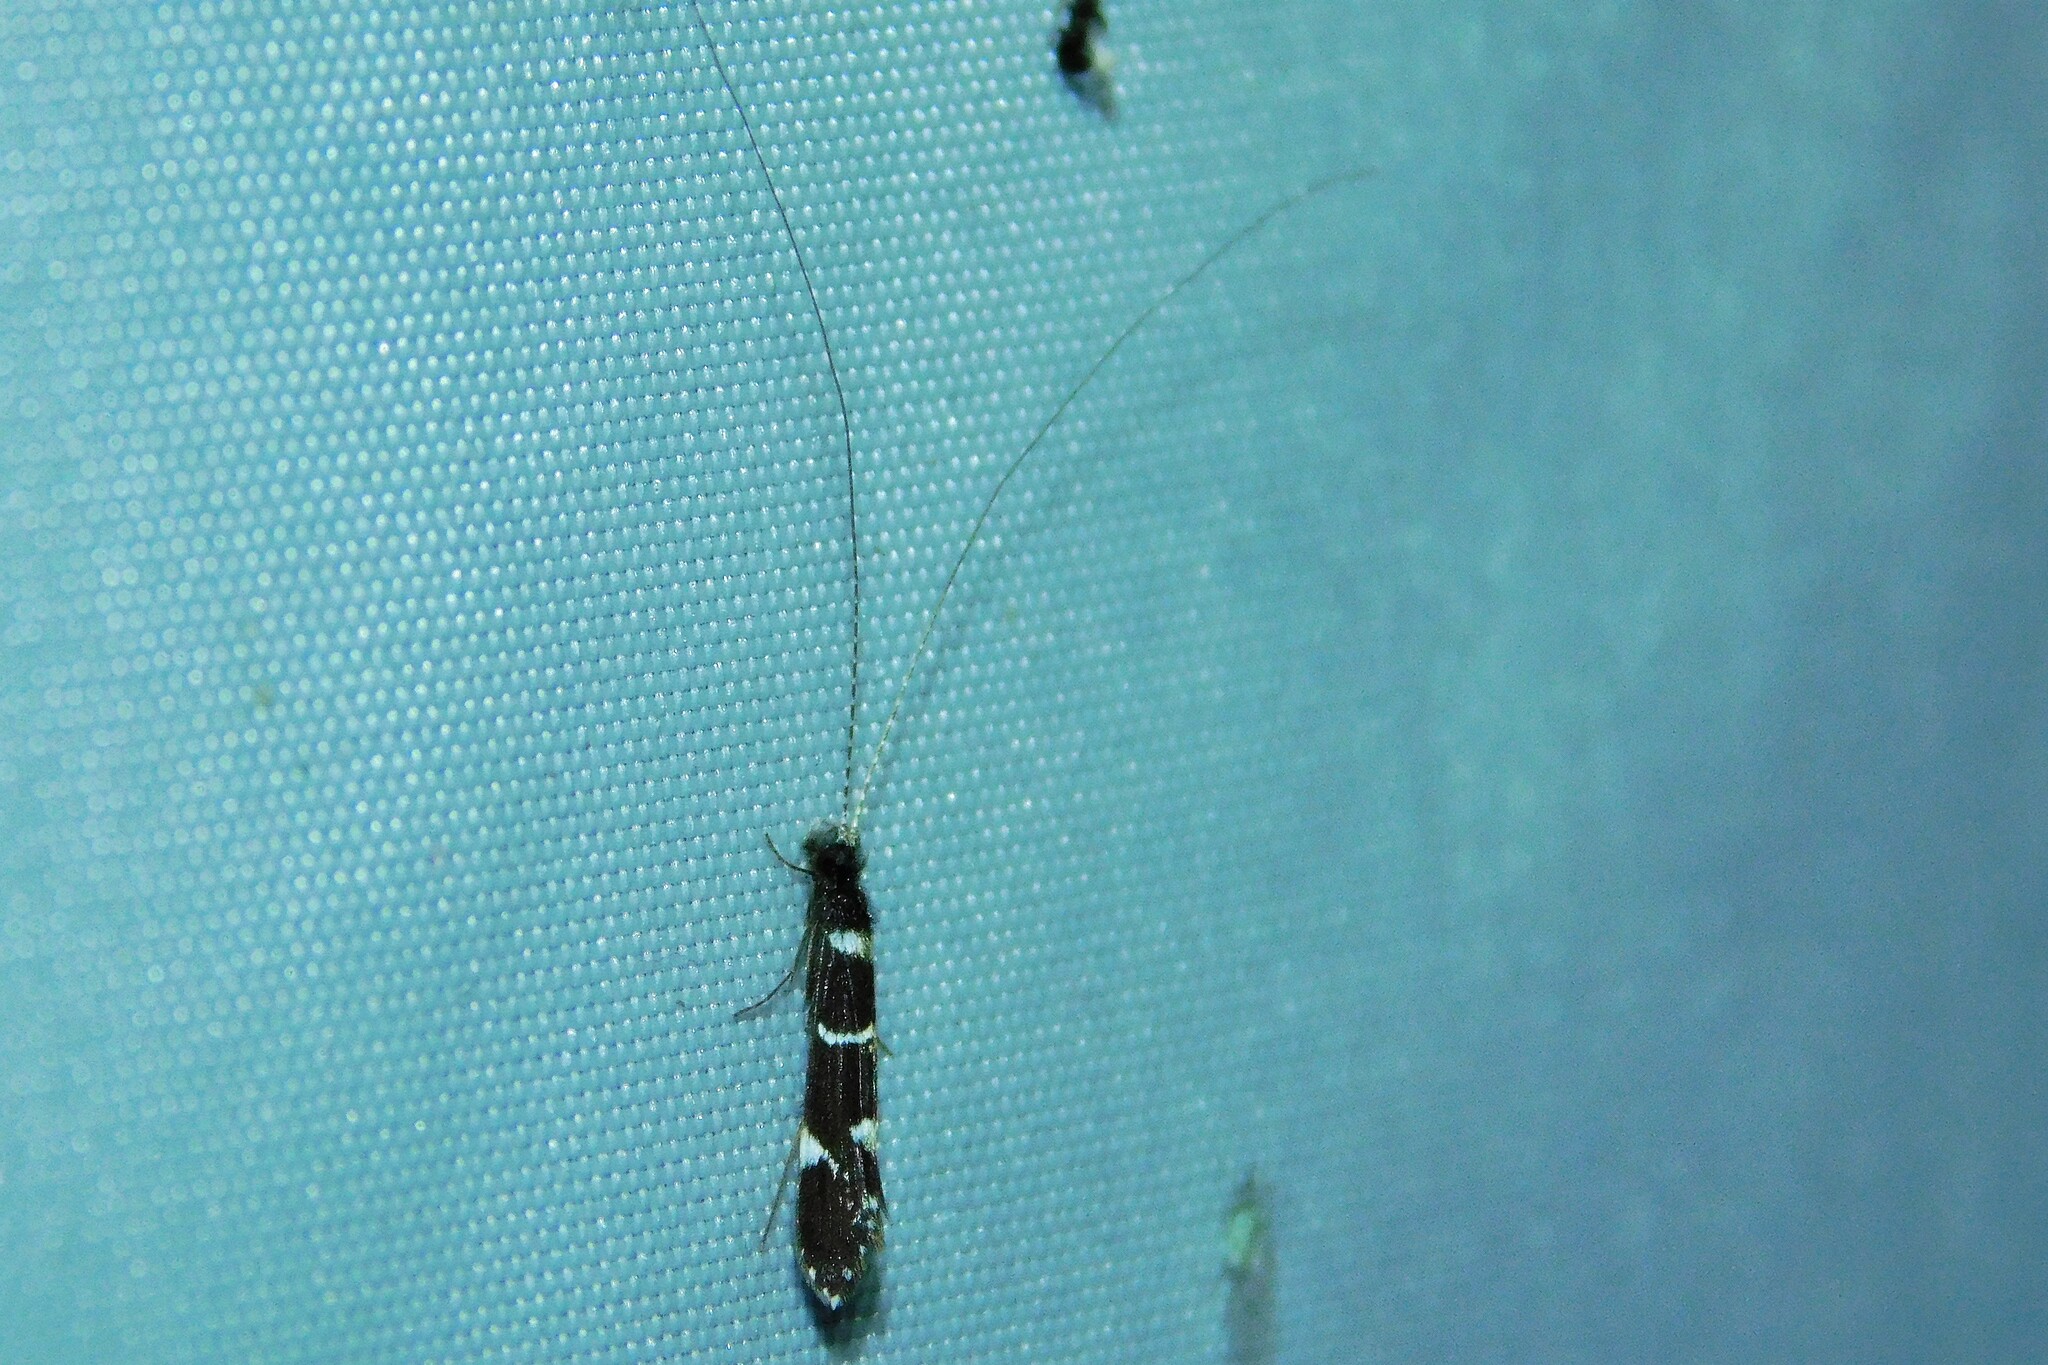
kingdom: Animalia
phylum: Arthropoda
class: Insecta
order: Trichoptera
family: Leptoceridae
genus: Leptocerus
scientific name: Leptocerus interruptus
